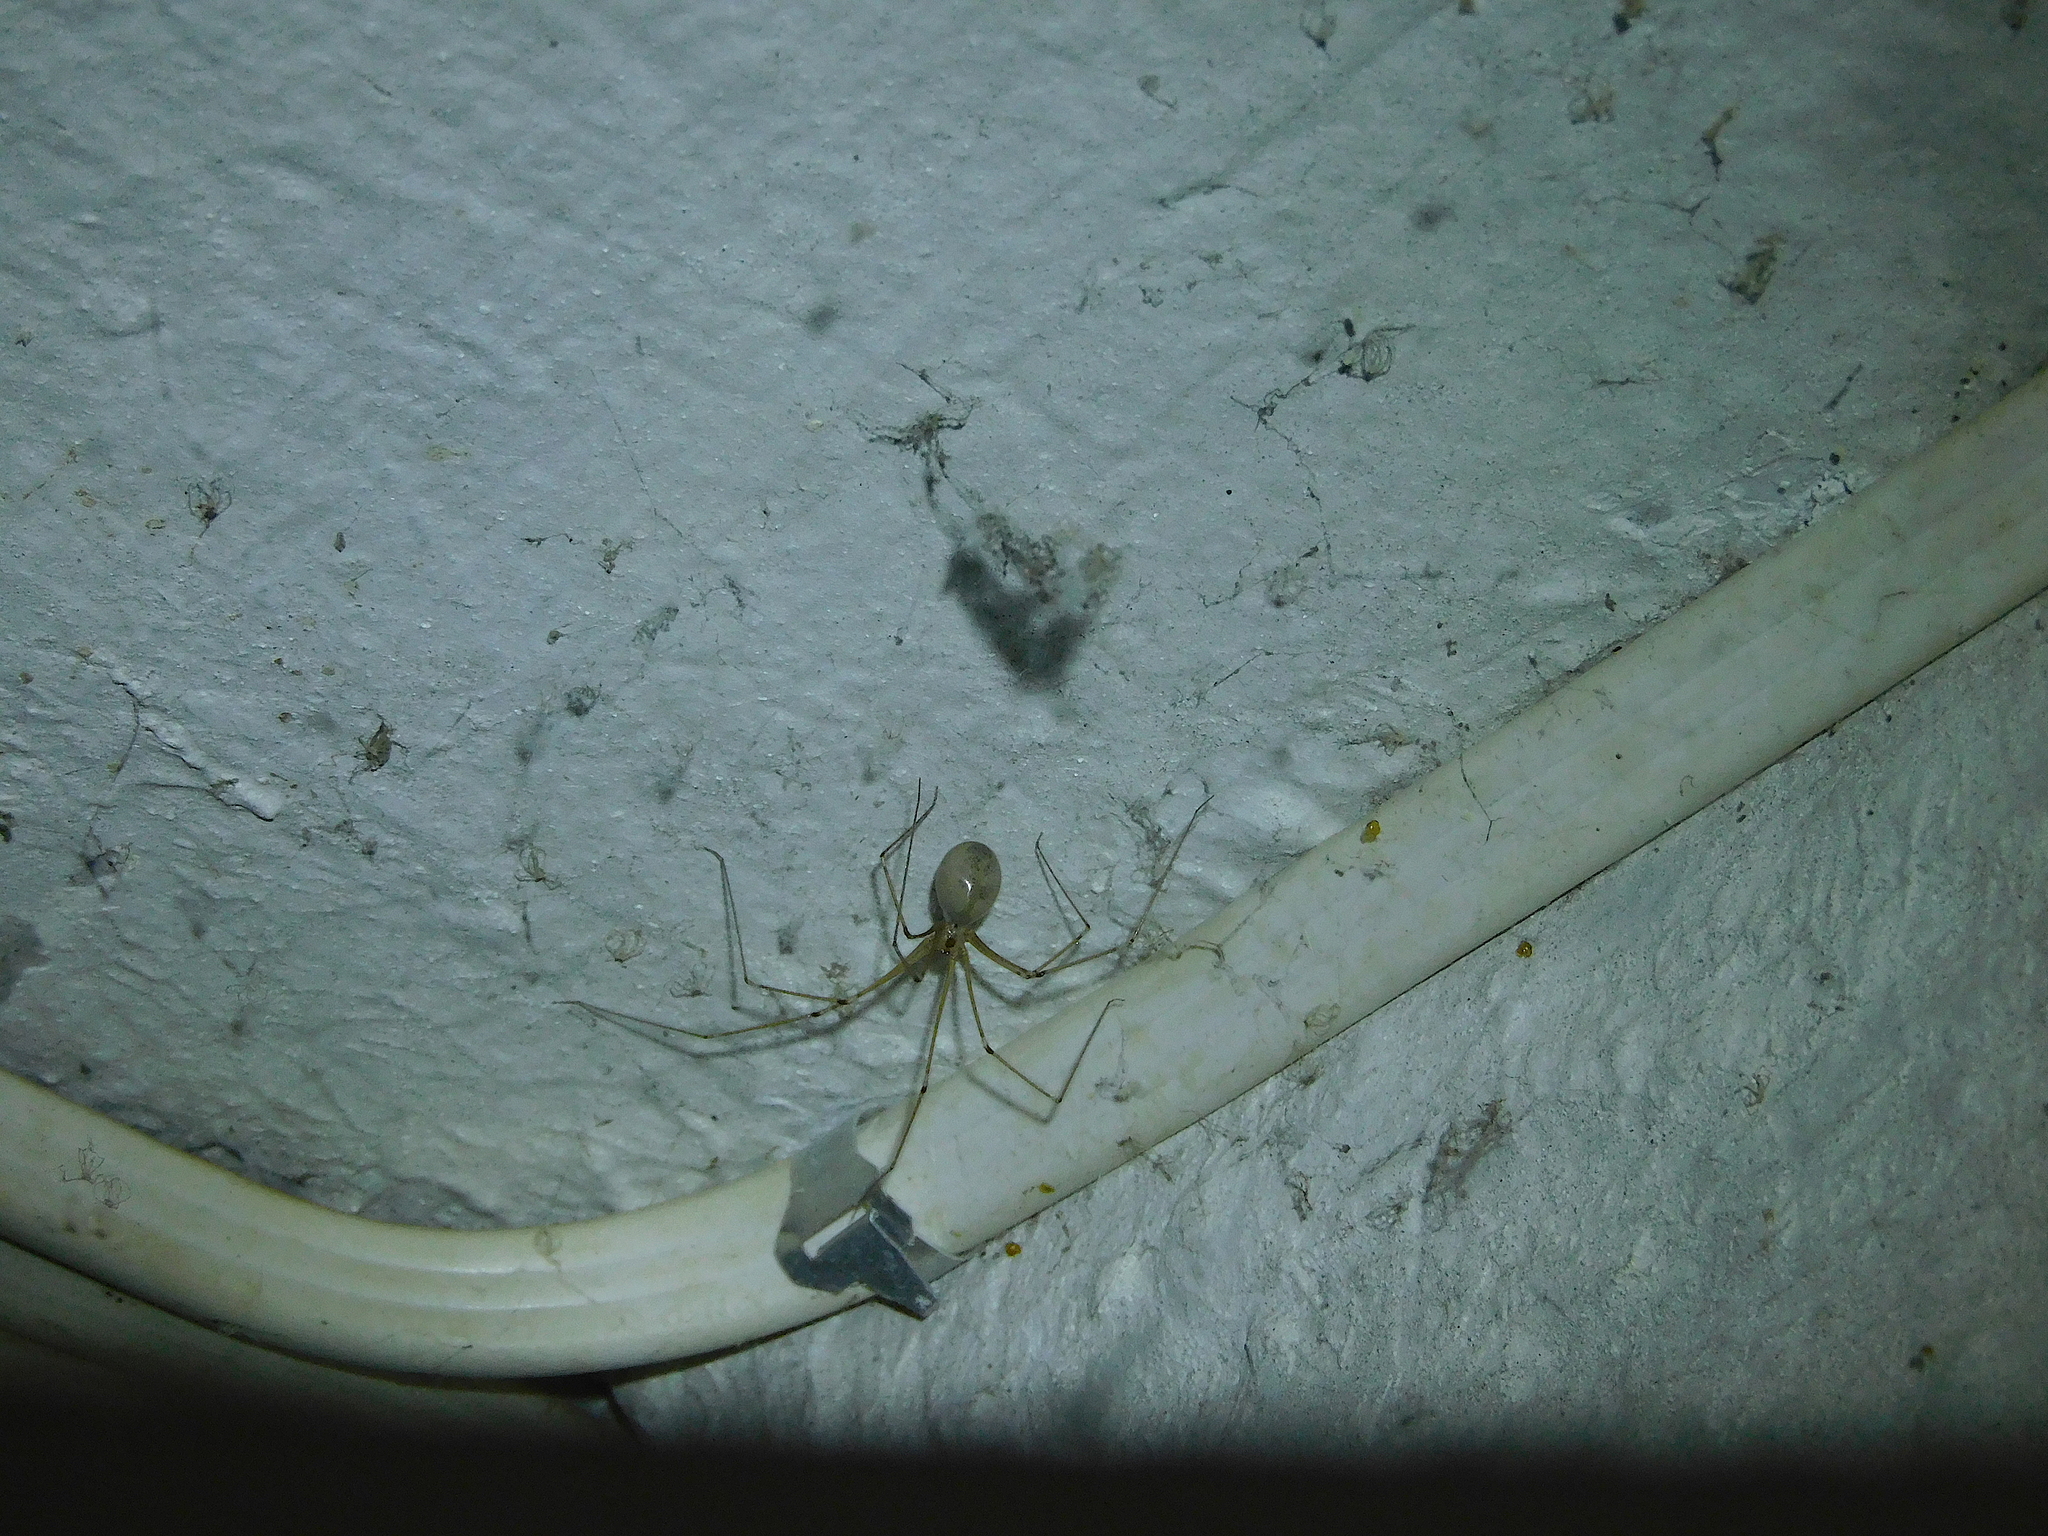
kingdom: Animalia
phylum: Arthropoda
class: Arachnida
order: Araneae
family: Pholcidae
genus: Pholcus
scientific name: Pholcus phalangioides
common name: Longbodied cellar spider
